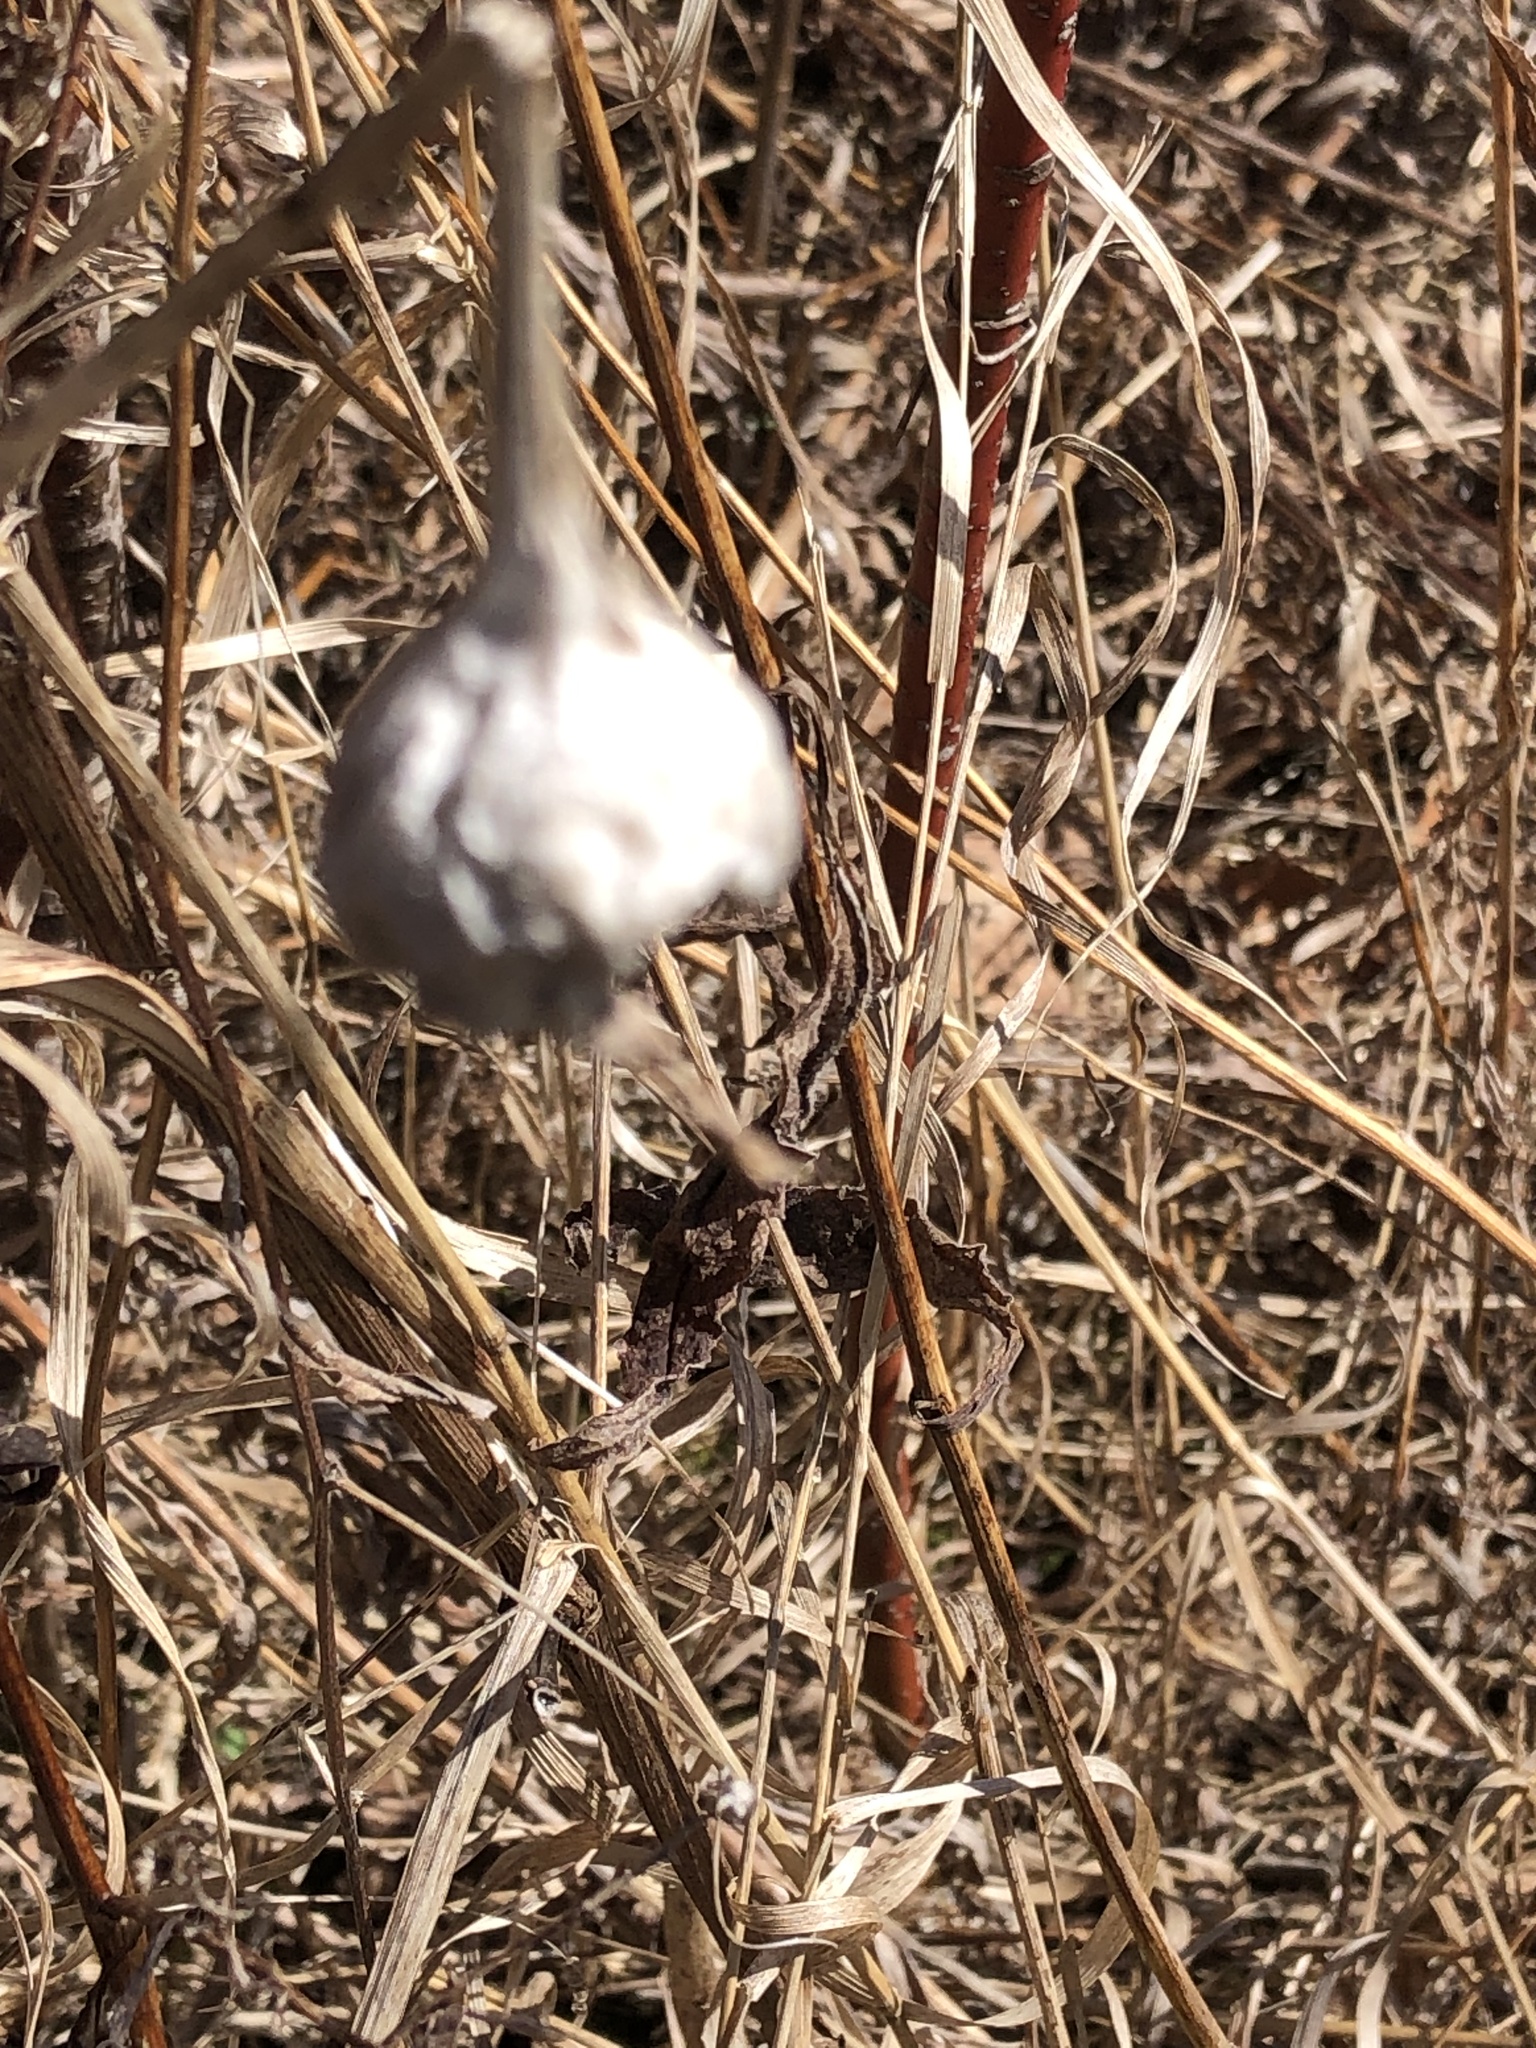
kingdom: Animalia
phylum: Arthropoda
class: Insecta
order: Diptera
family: Tephritidae
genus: Eurosta
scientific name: Eurosta solidaginis
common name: Goldenrod gall fly
